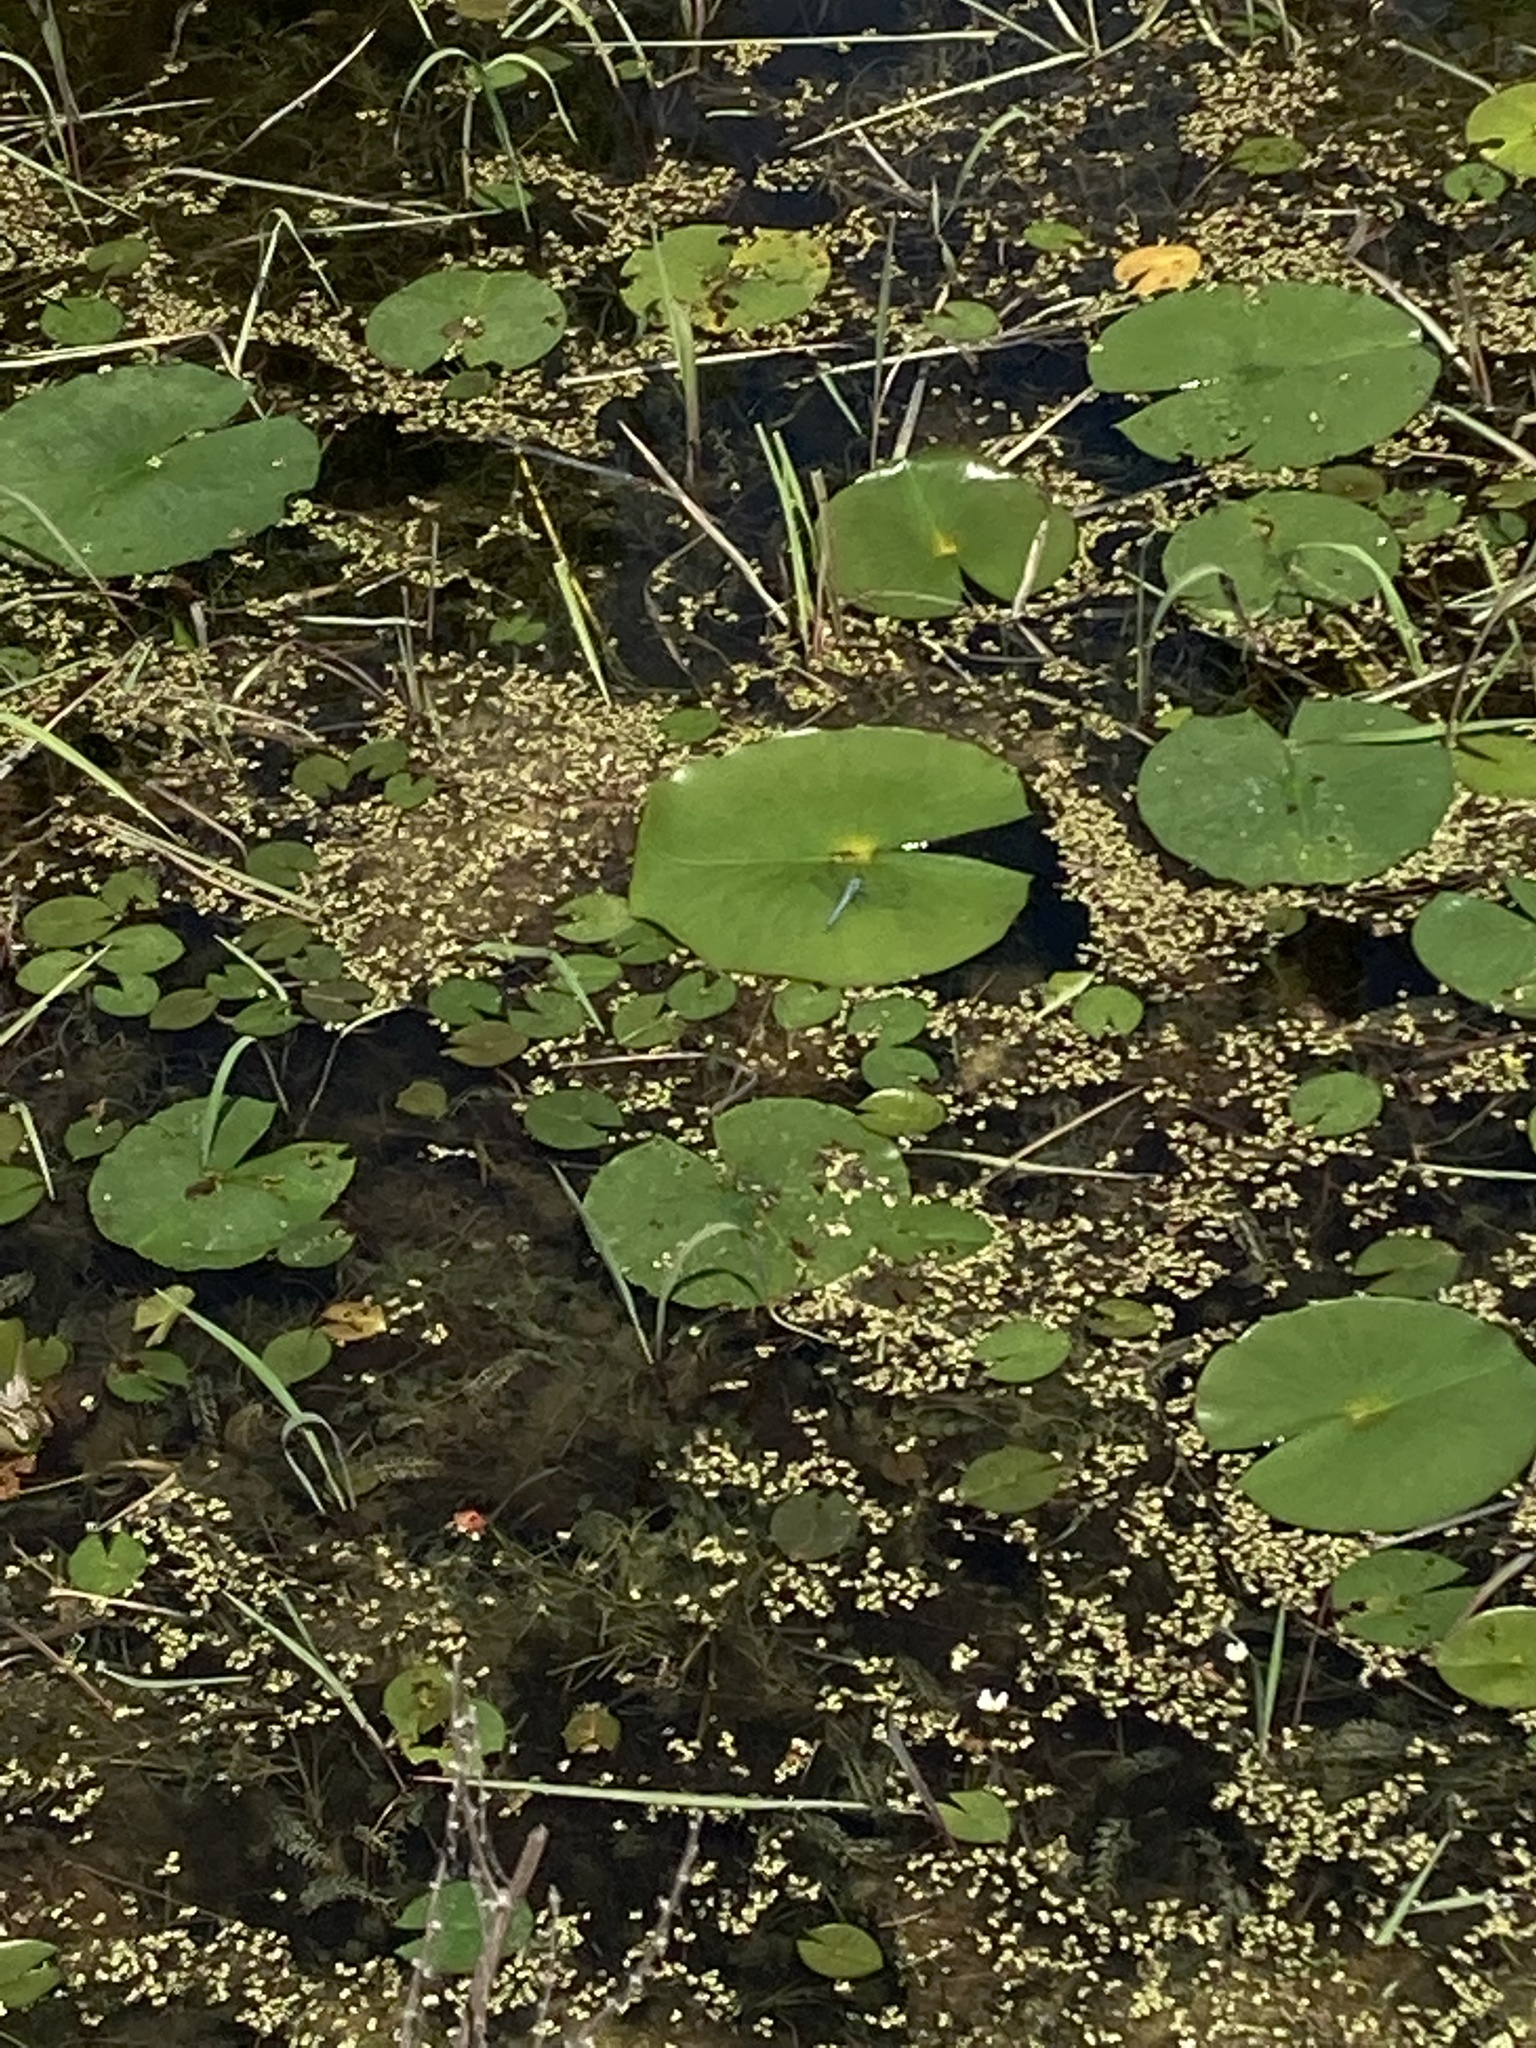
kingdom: Animalia
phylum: Arthropoda
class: Insecta
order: Odonata
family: Libellulidae
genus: Erythemis
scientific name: Erythemis simplicicollis
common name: Eastern pondhawk
